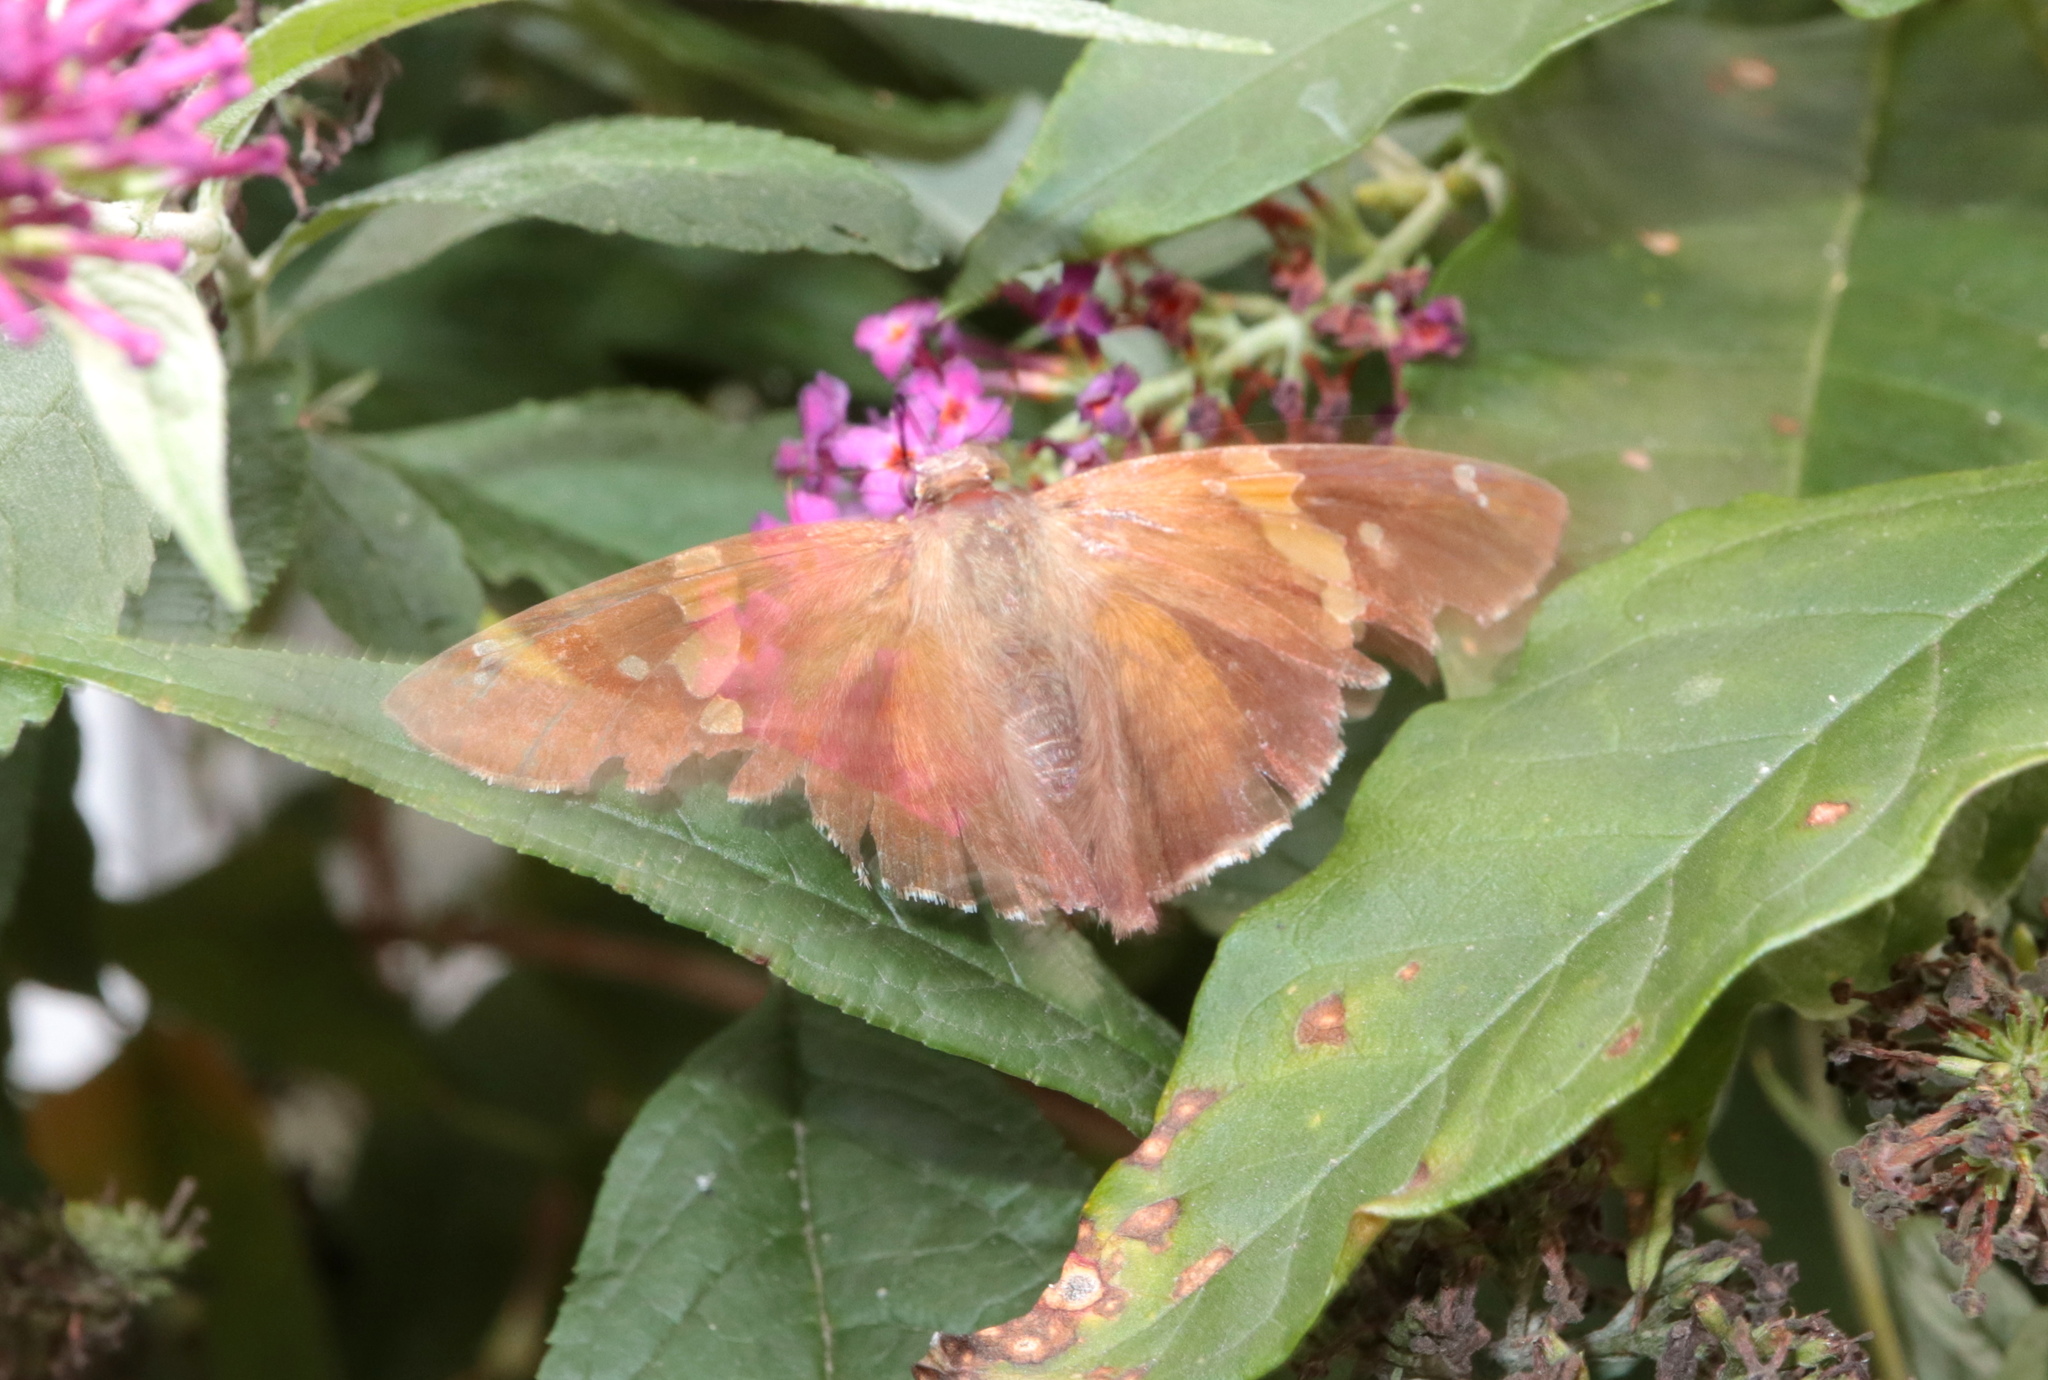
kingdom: Animalia
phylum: Arthropoda
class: Insecta
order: Lepidoptera
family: Hesperiidae
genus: Epargyreus
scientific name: Epargyreus clarus
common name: Silver-spotted skipper
